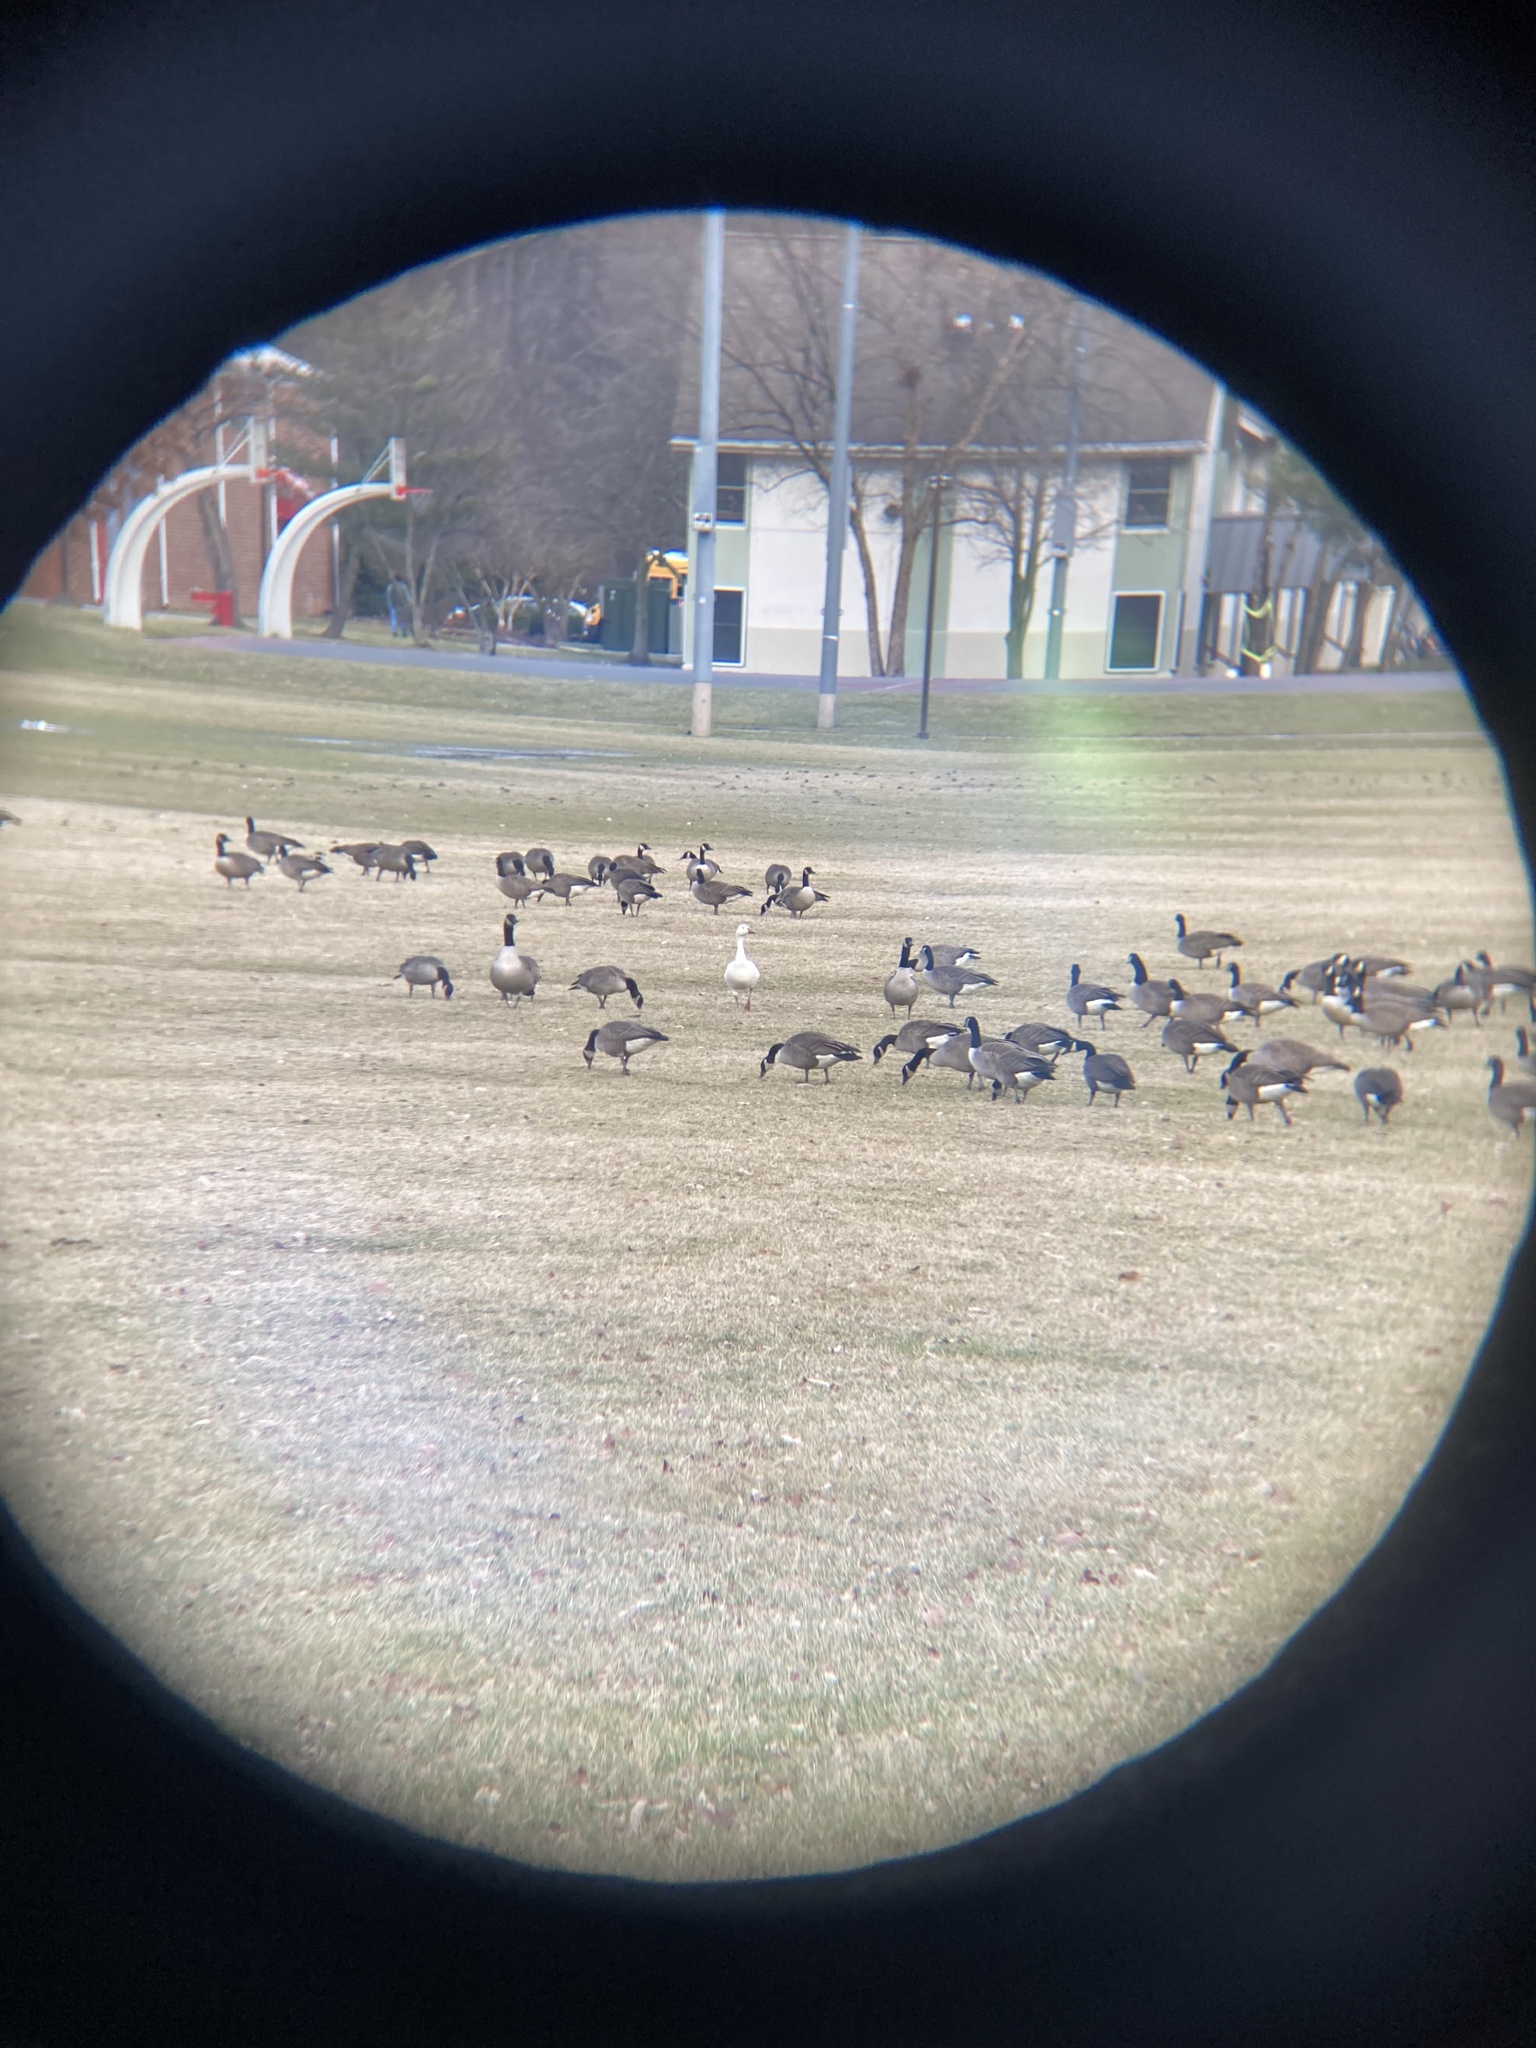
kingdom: Animalia
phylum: Chordata
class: Aves
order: Anseriformes
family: Anatidae
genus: Anser
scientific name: Anser caerulescens
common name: Snow goose
